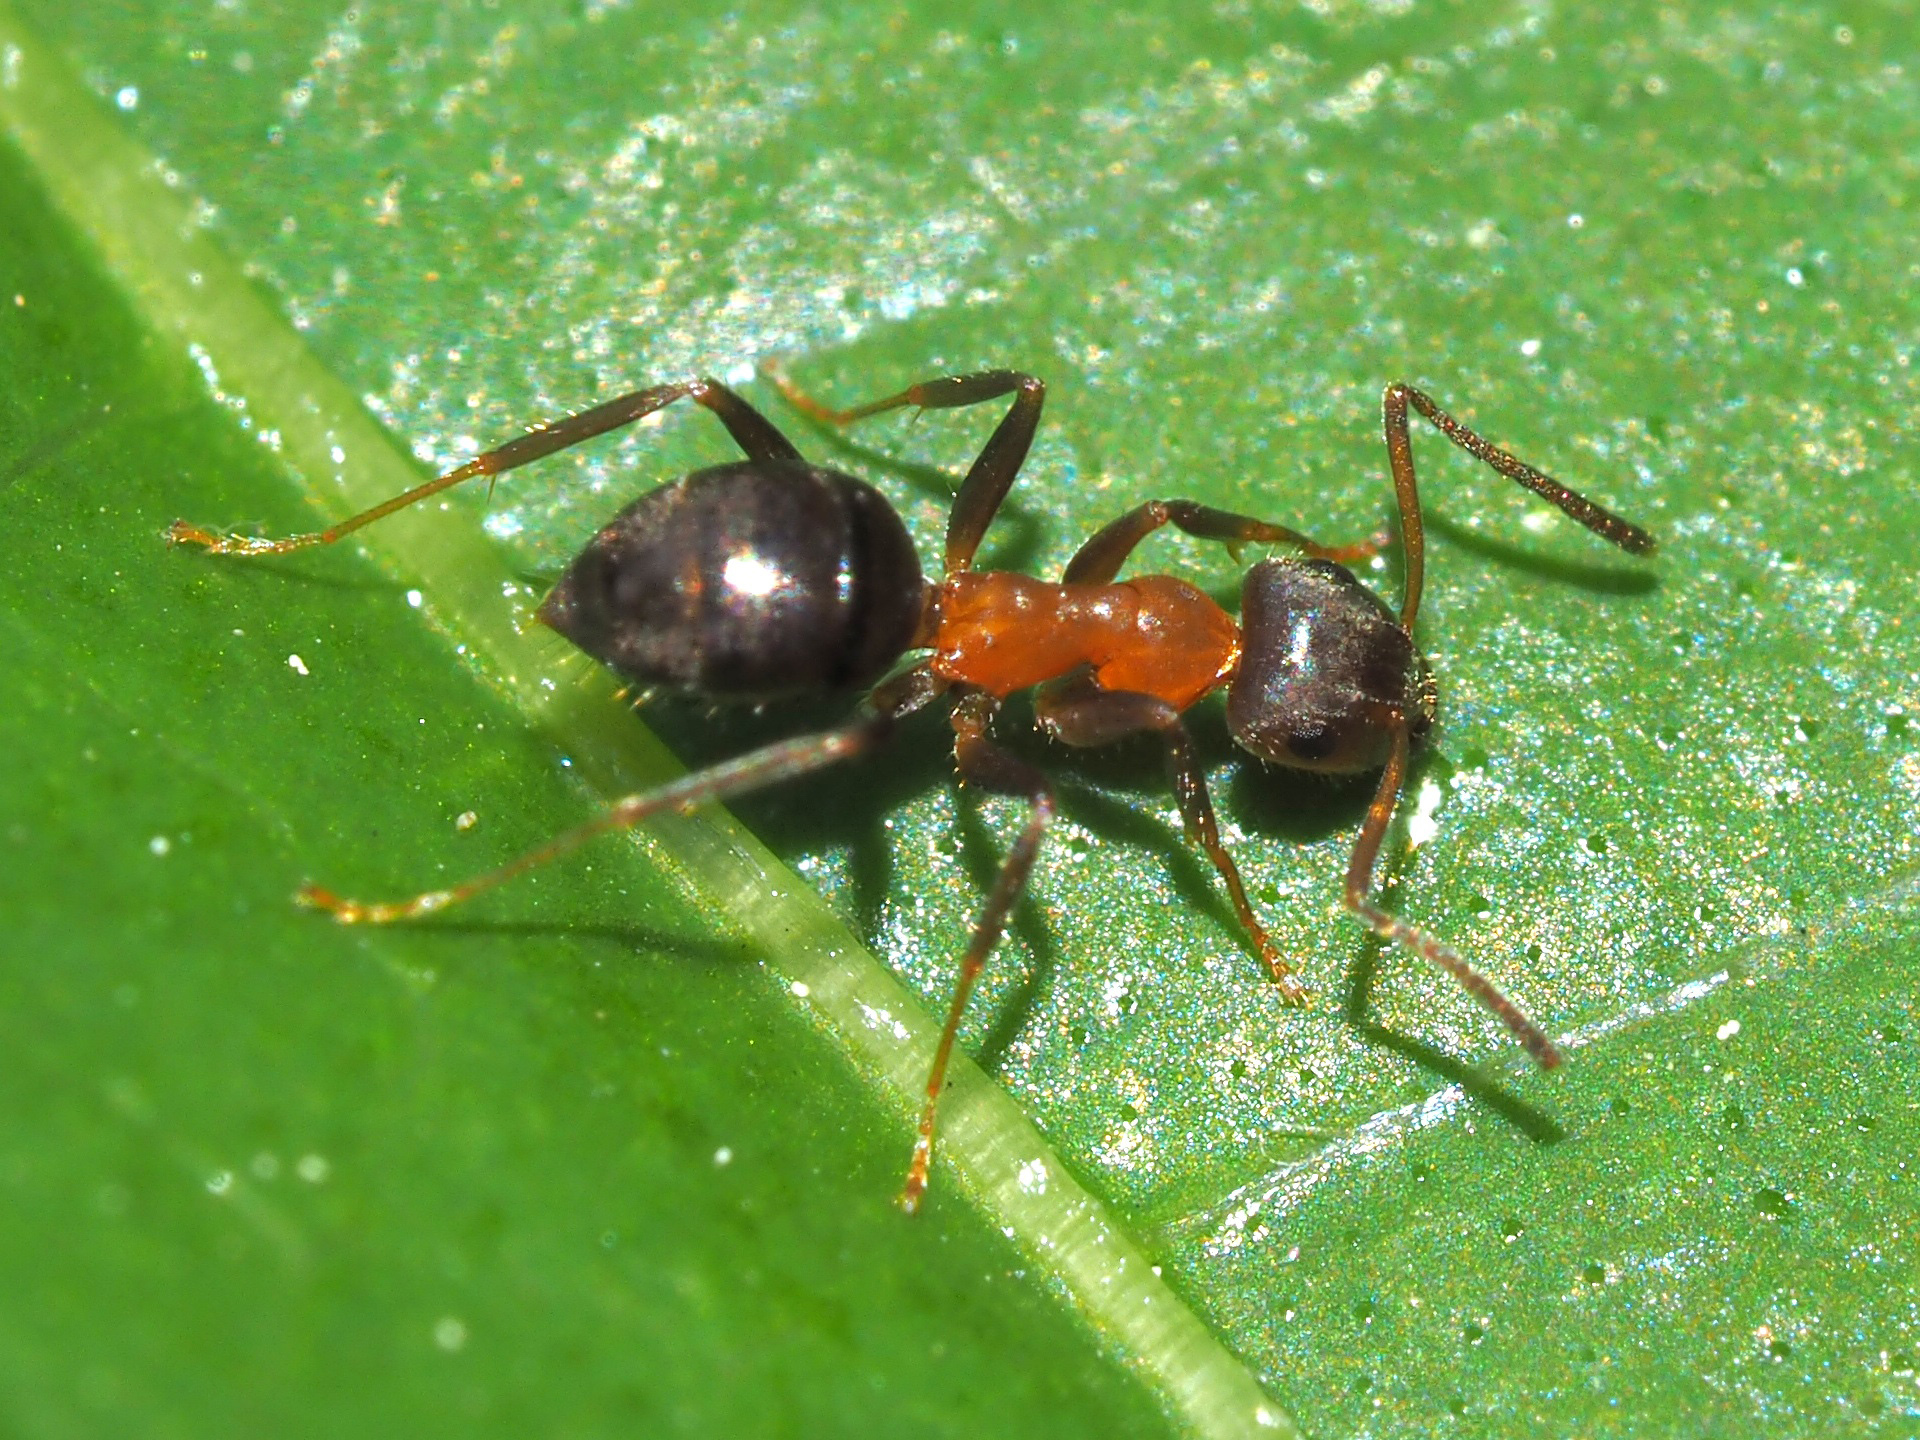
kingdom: Animalia
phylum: Arthropoda
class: Insecta
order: Hymenoptera
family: Formicidae
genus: Lasius
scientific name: Lasius emarginatus
